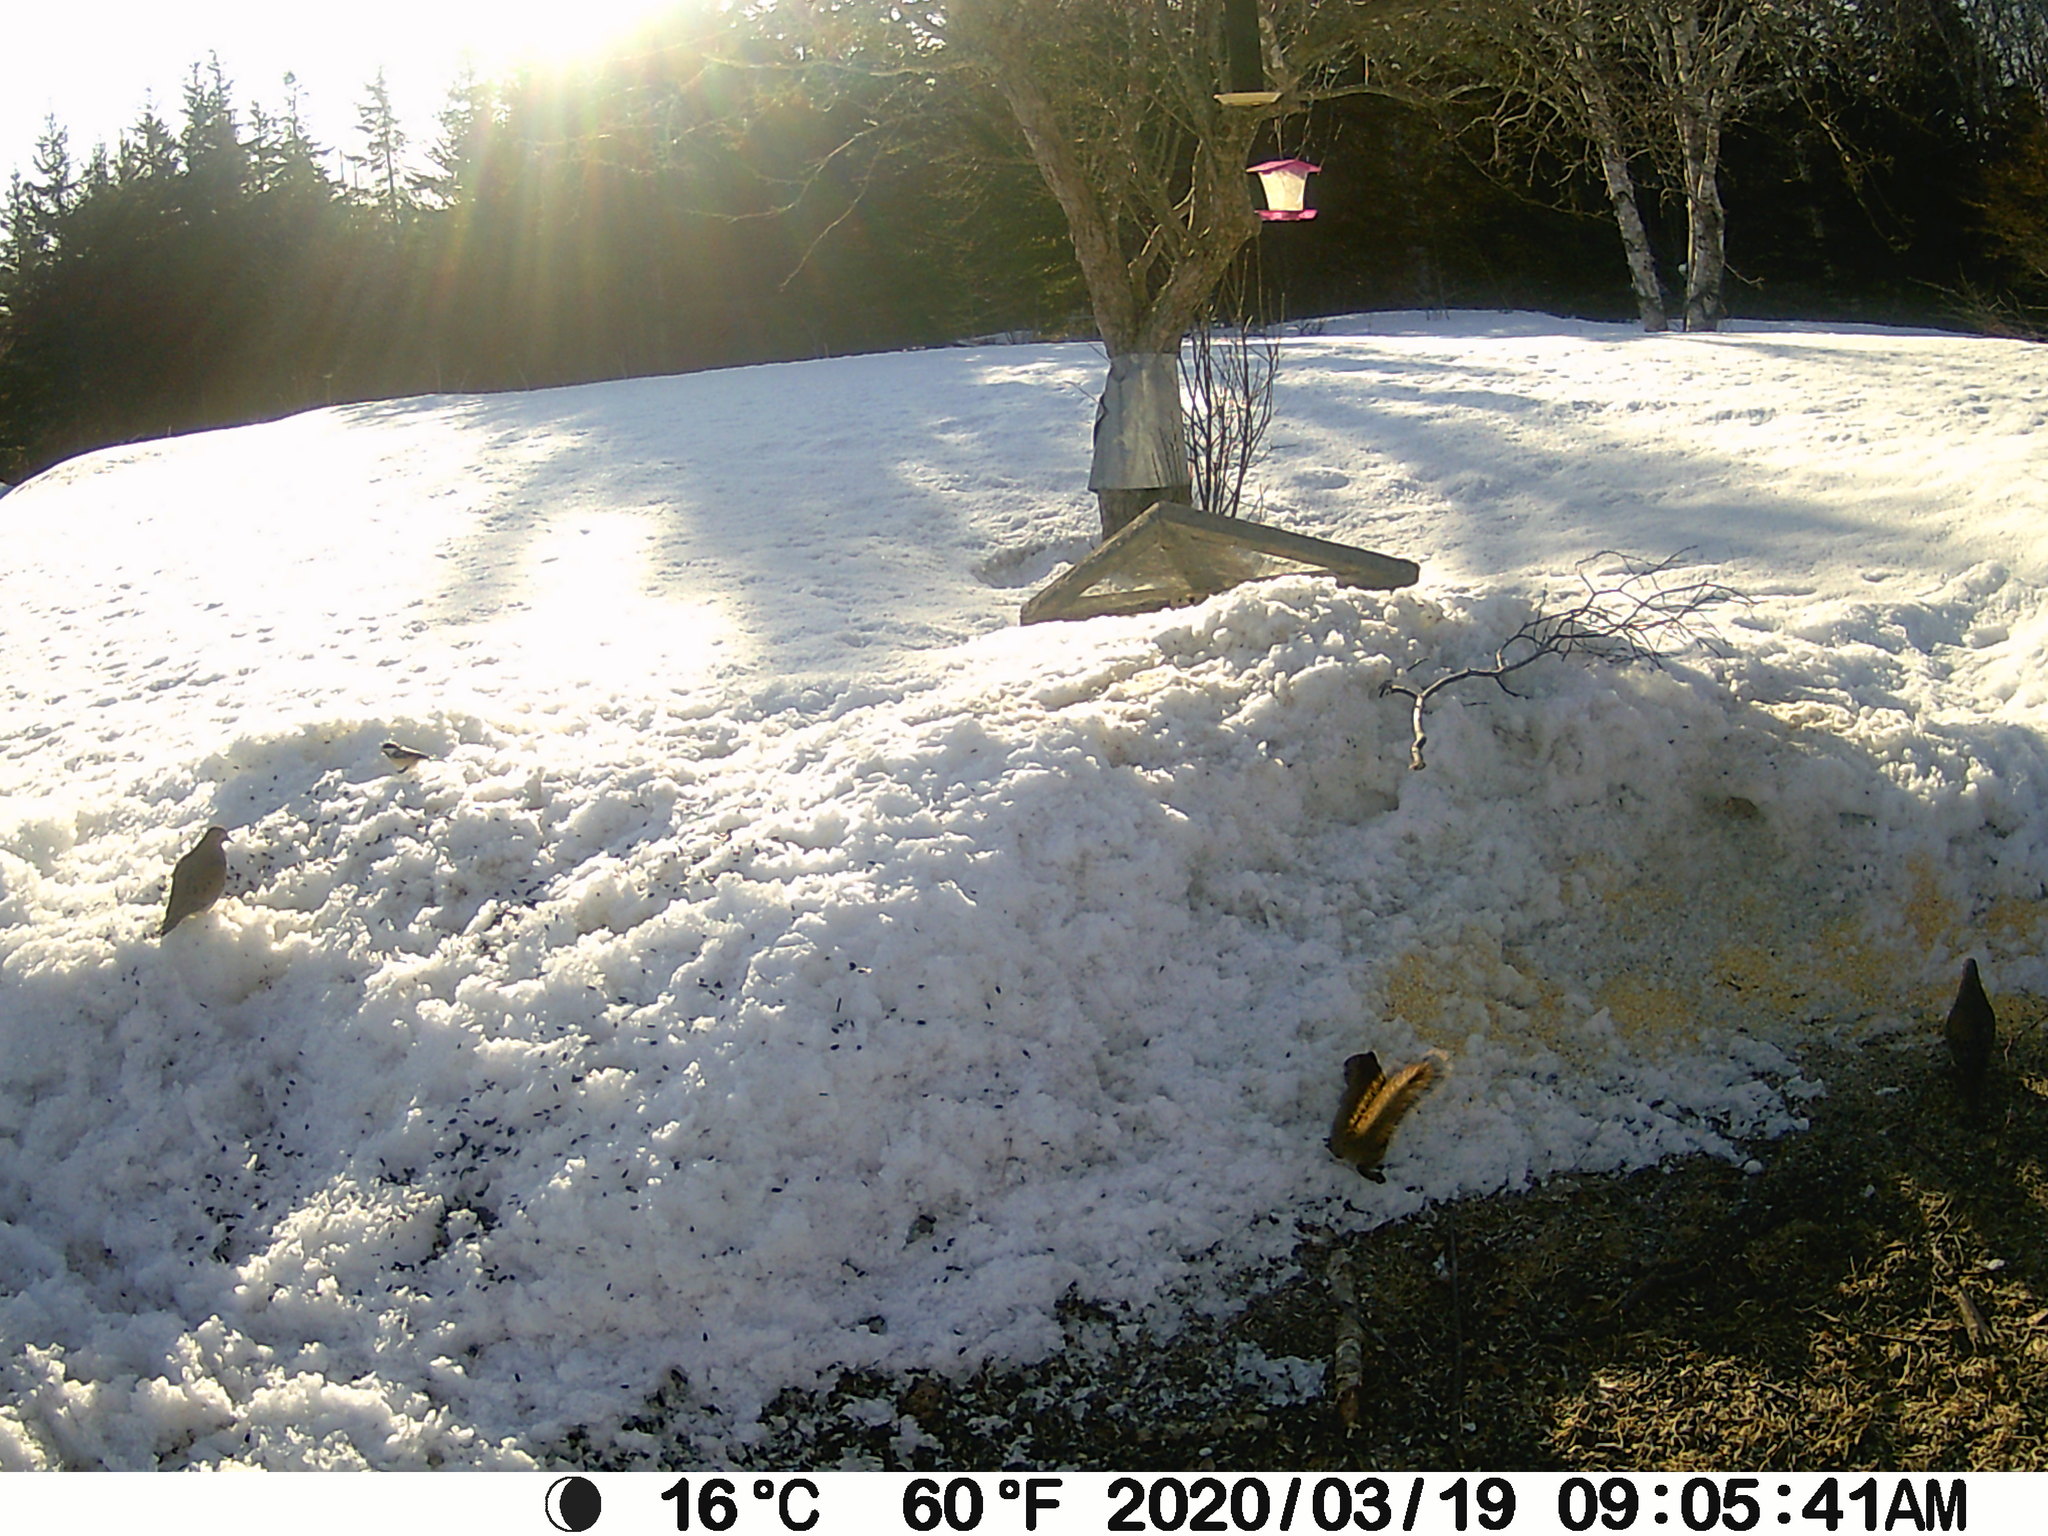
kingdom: Animalia
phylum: Chordata
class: Aves
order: Columbiformes
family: Columbidae
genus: Zenaida
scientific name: Zenaida macroura
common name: Mourning dove
